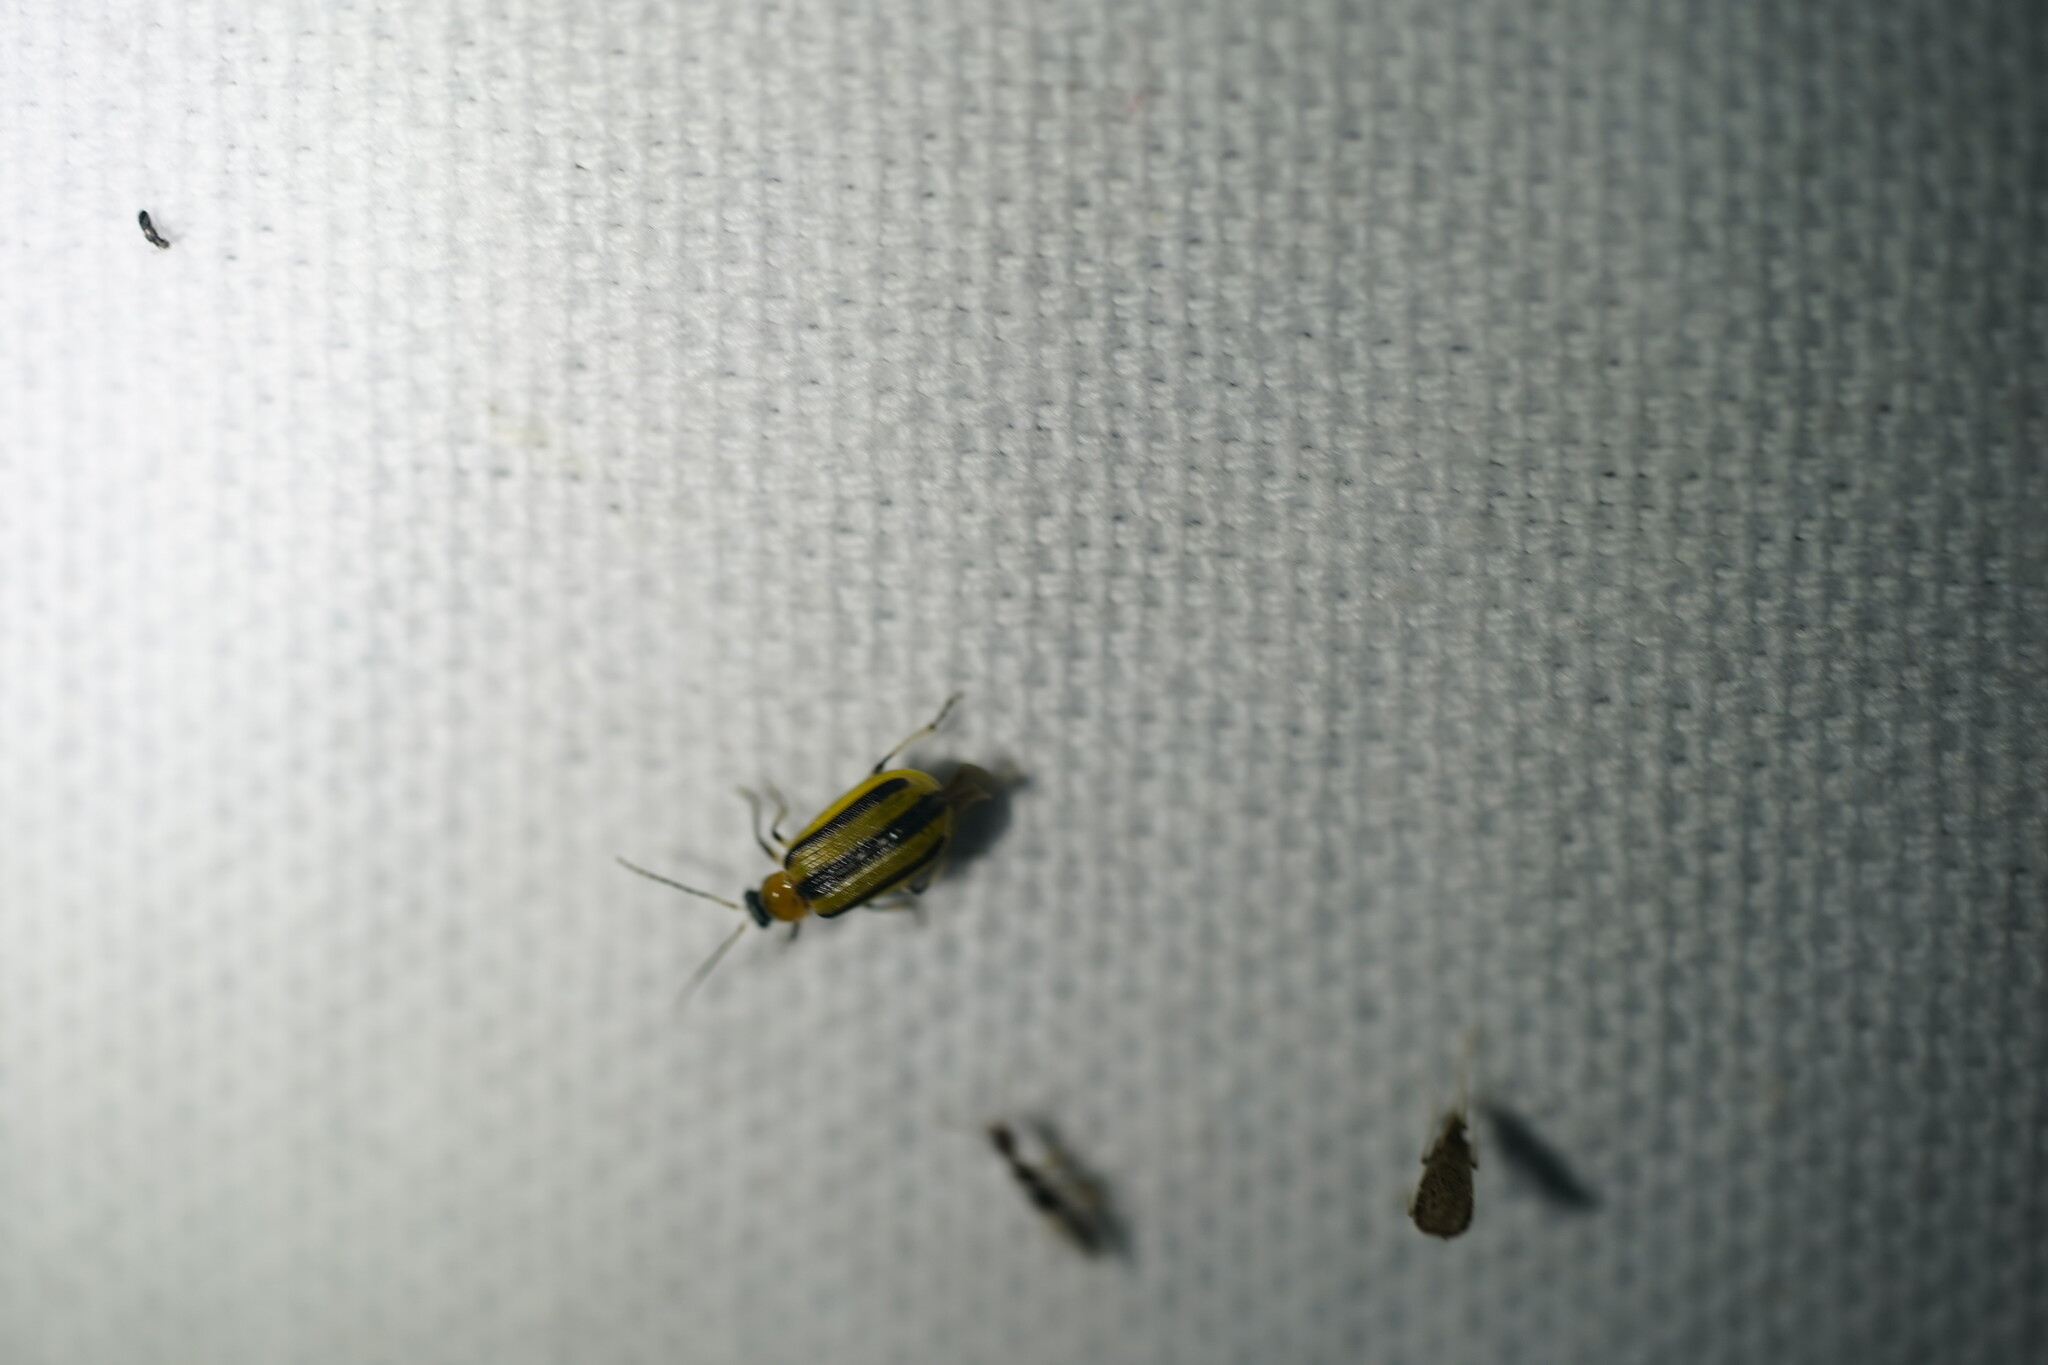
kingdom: Animalia
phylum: Arthropoda
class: Insecta
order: Coleoptera
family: Chrysomelidae
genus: Acalymma
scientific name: Acalymma vittatum
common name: Striped cucumber beetle
